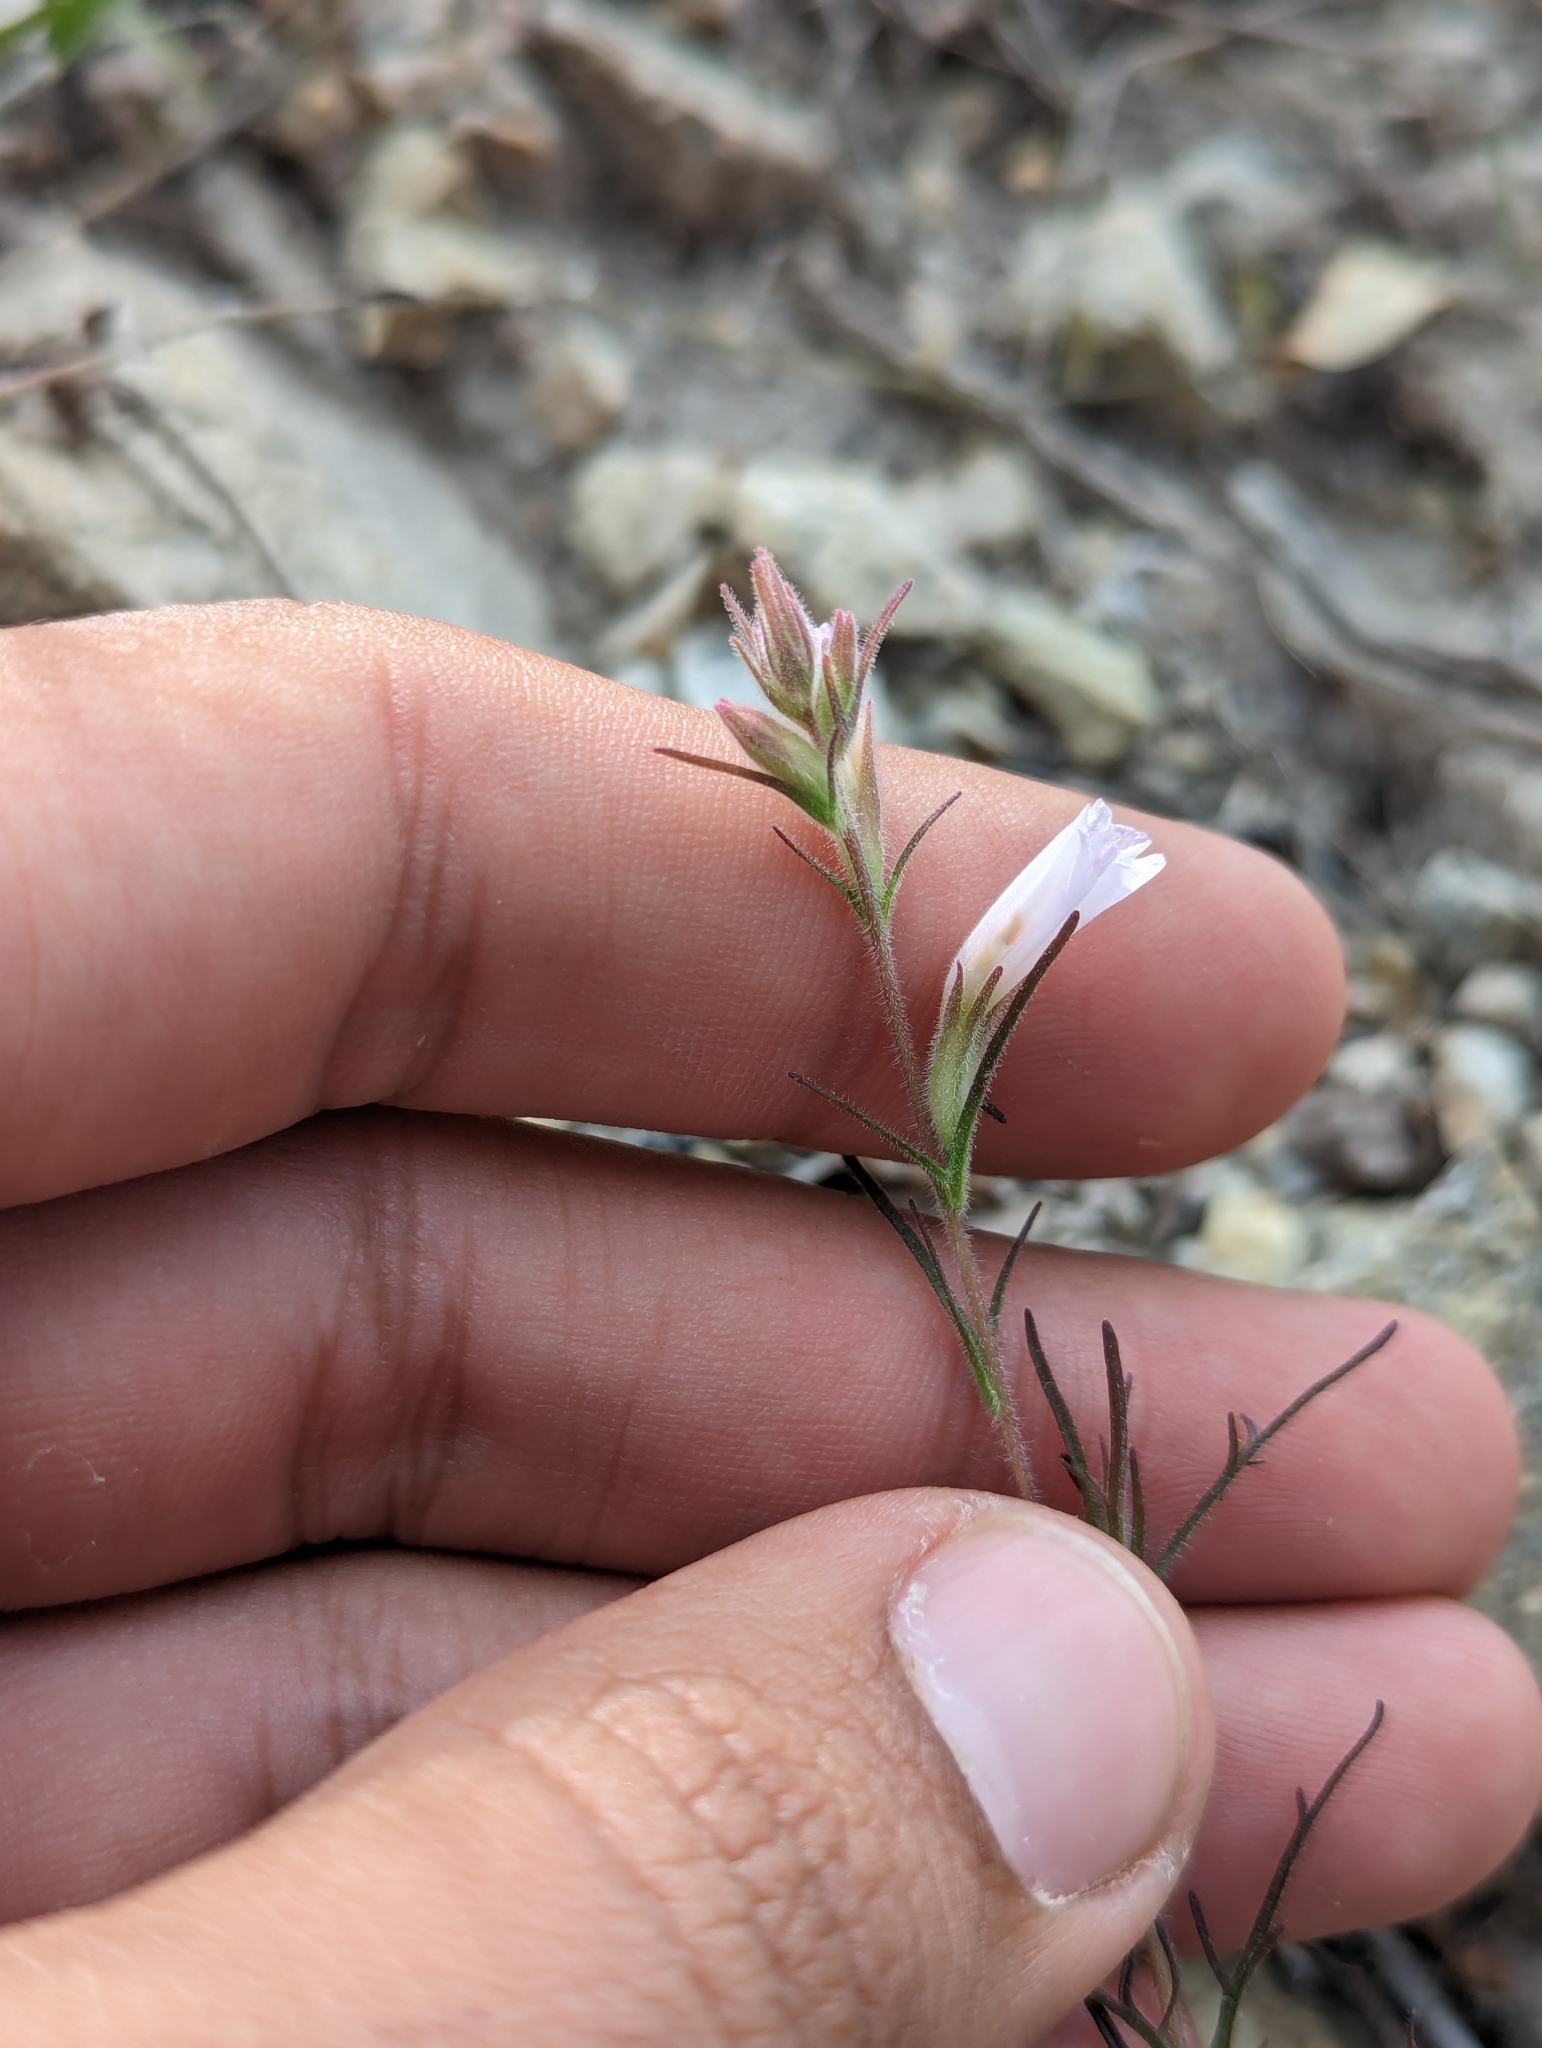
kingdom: Plantae
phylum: Tracheophyta
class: Magnoliopsida
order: Lamiales
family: Orobanchaceae
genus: Castilleja
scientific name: Castilleja beldingii
